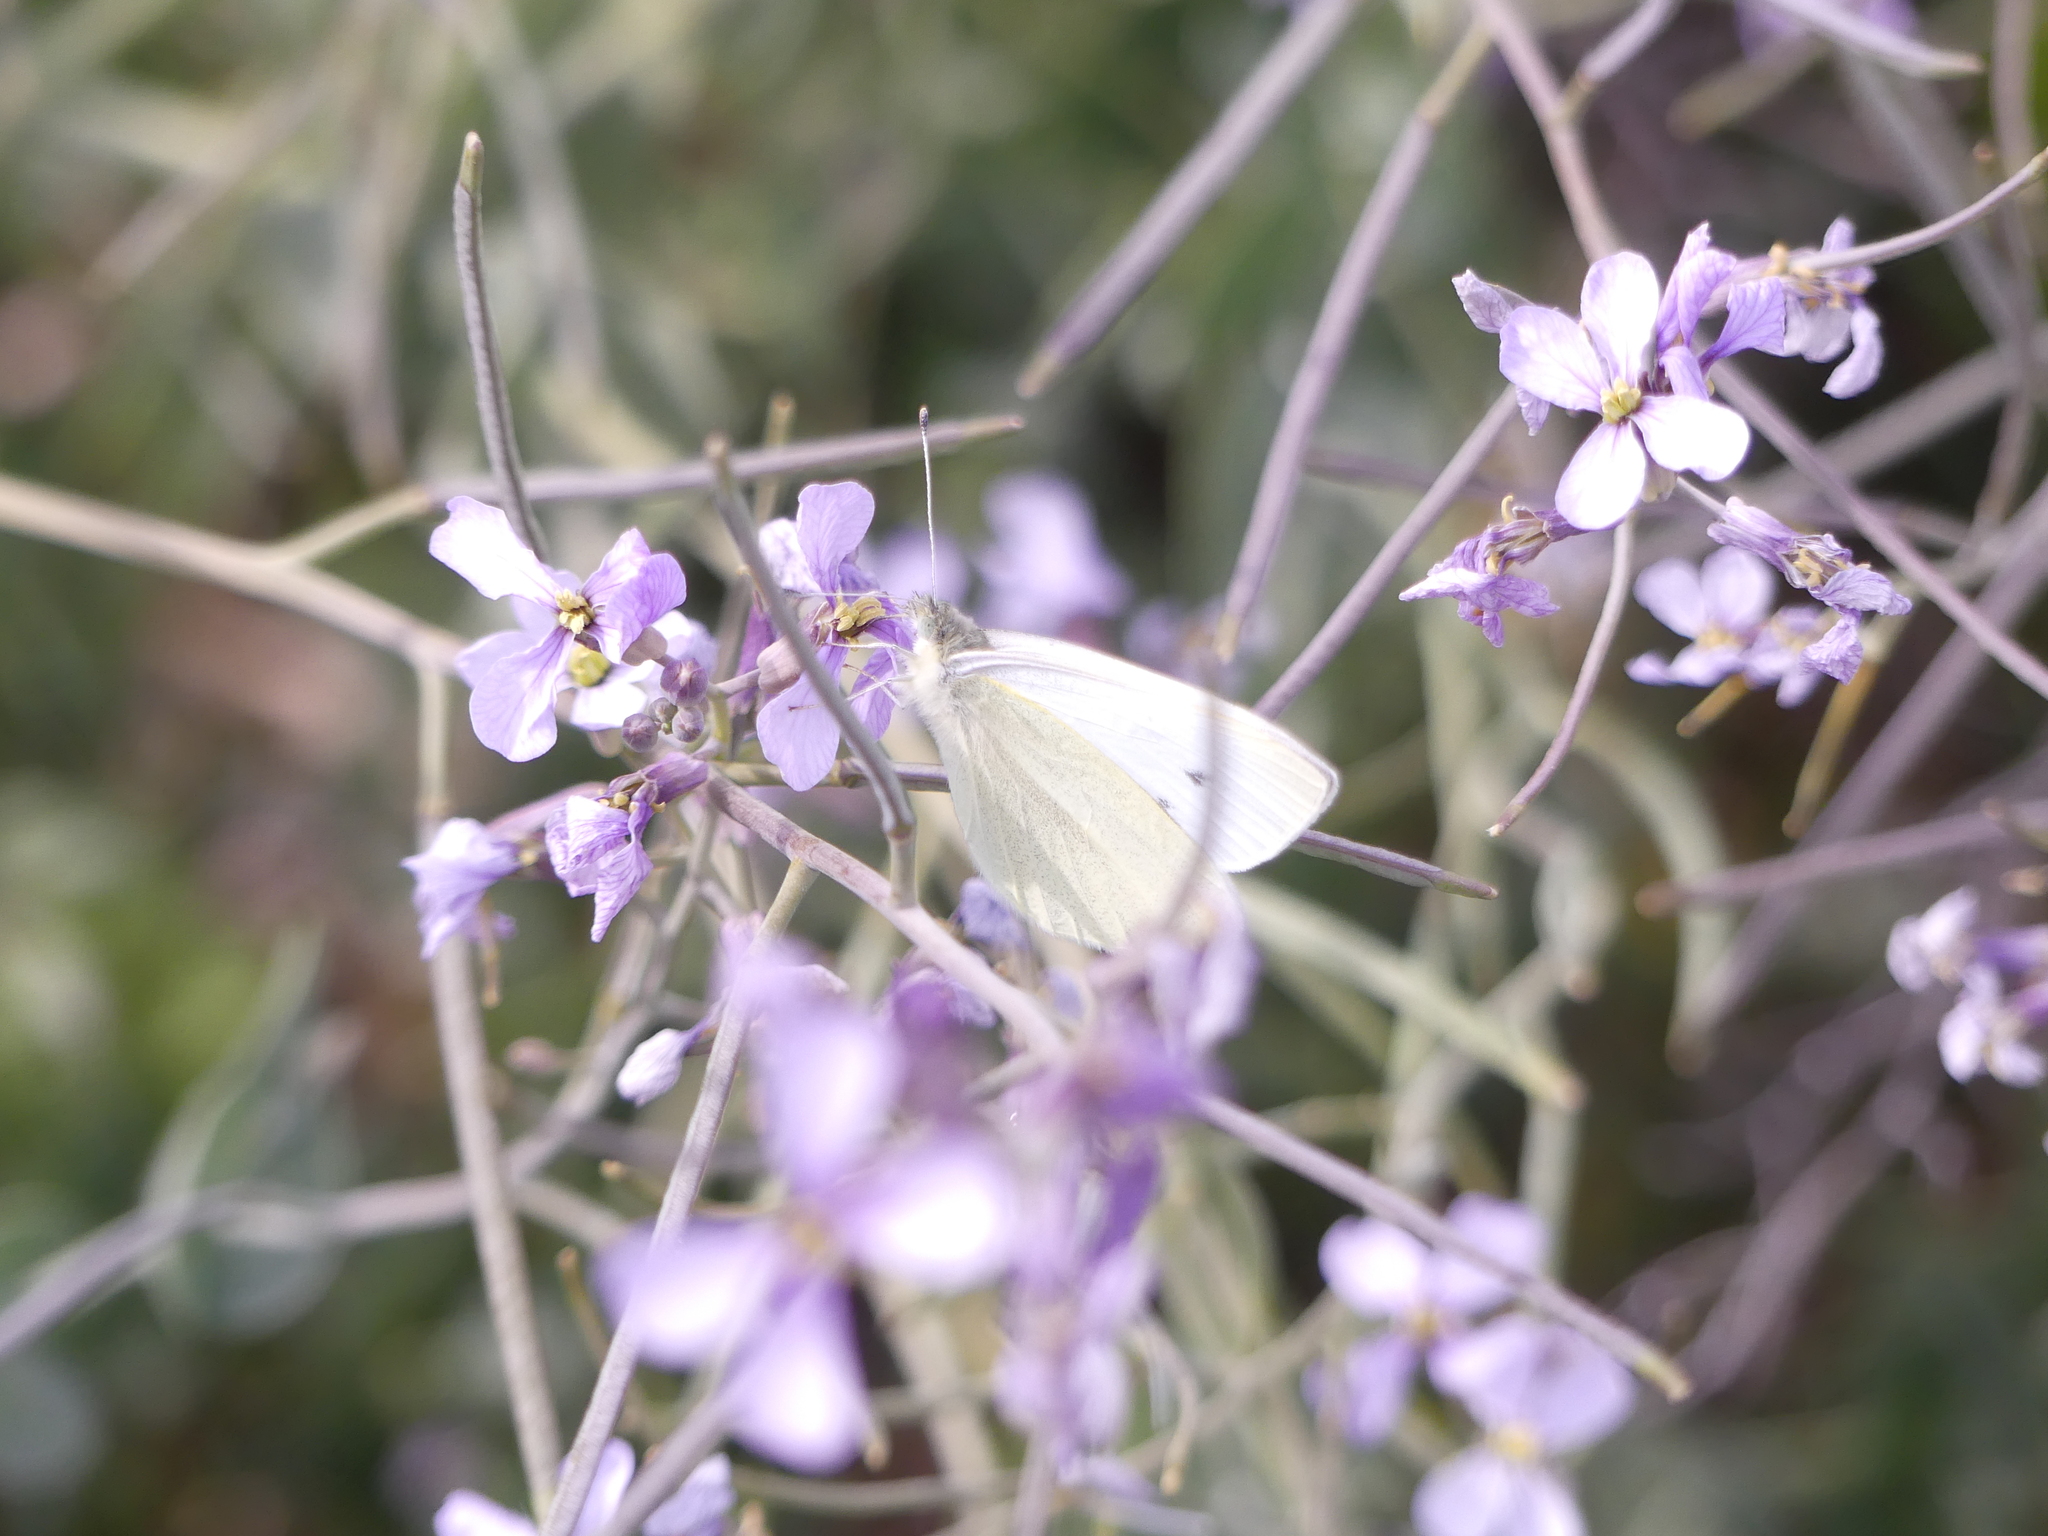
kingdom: Animalia
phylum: Arthropoda
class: Insecta
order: Lepidoptera
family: Pieridae
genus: Pieris
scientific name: Pieris rapae
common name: Small white
